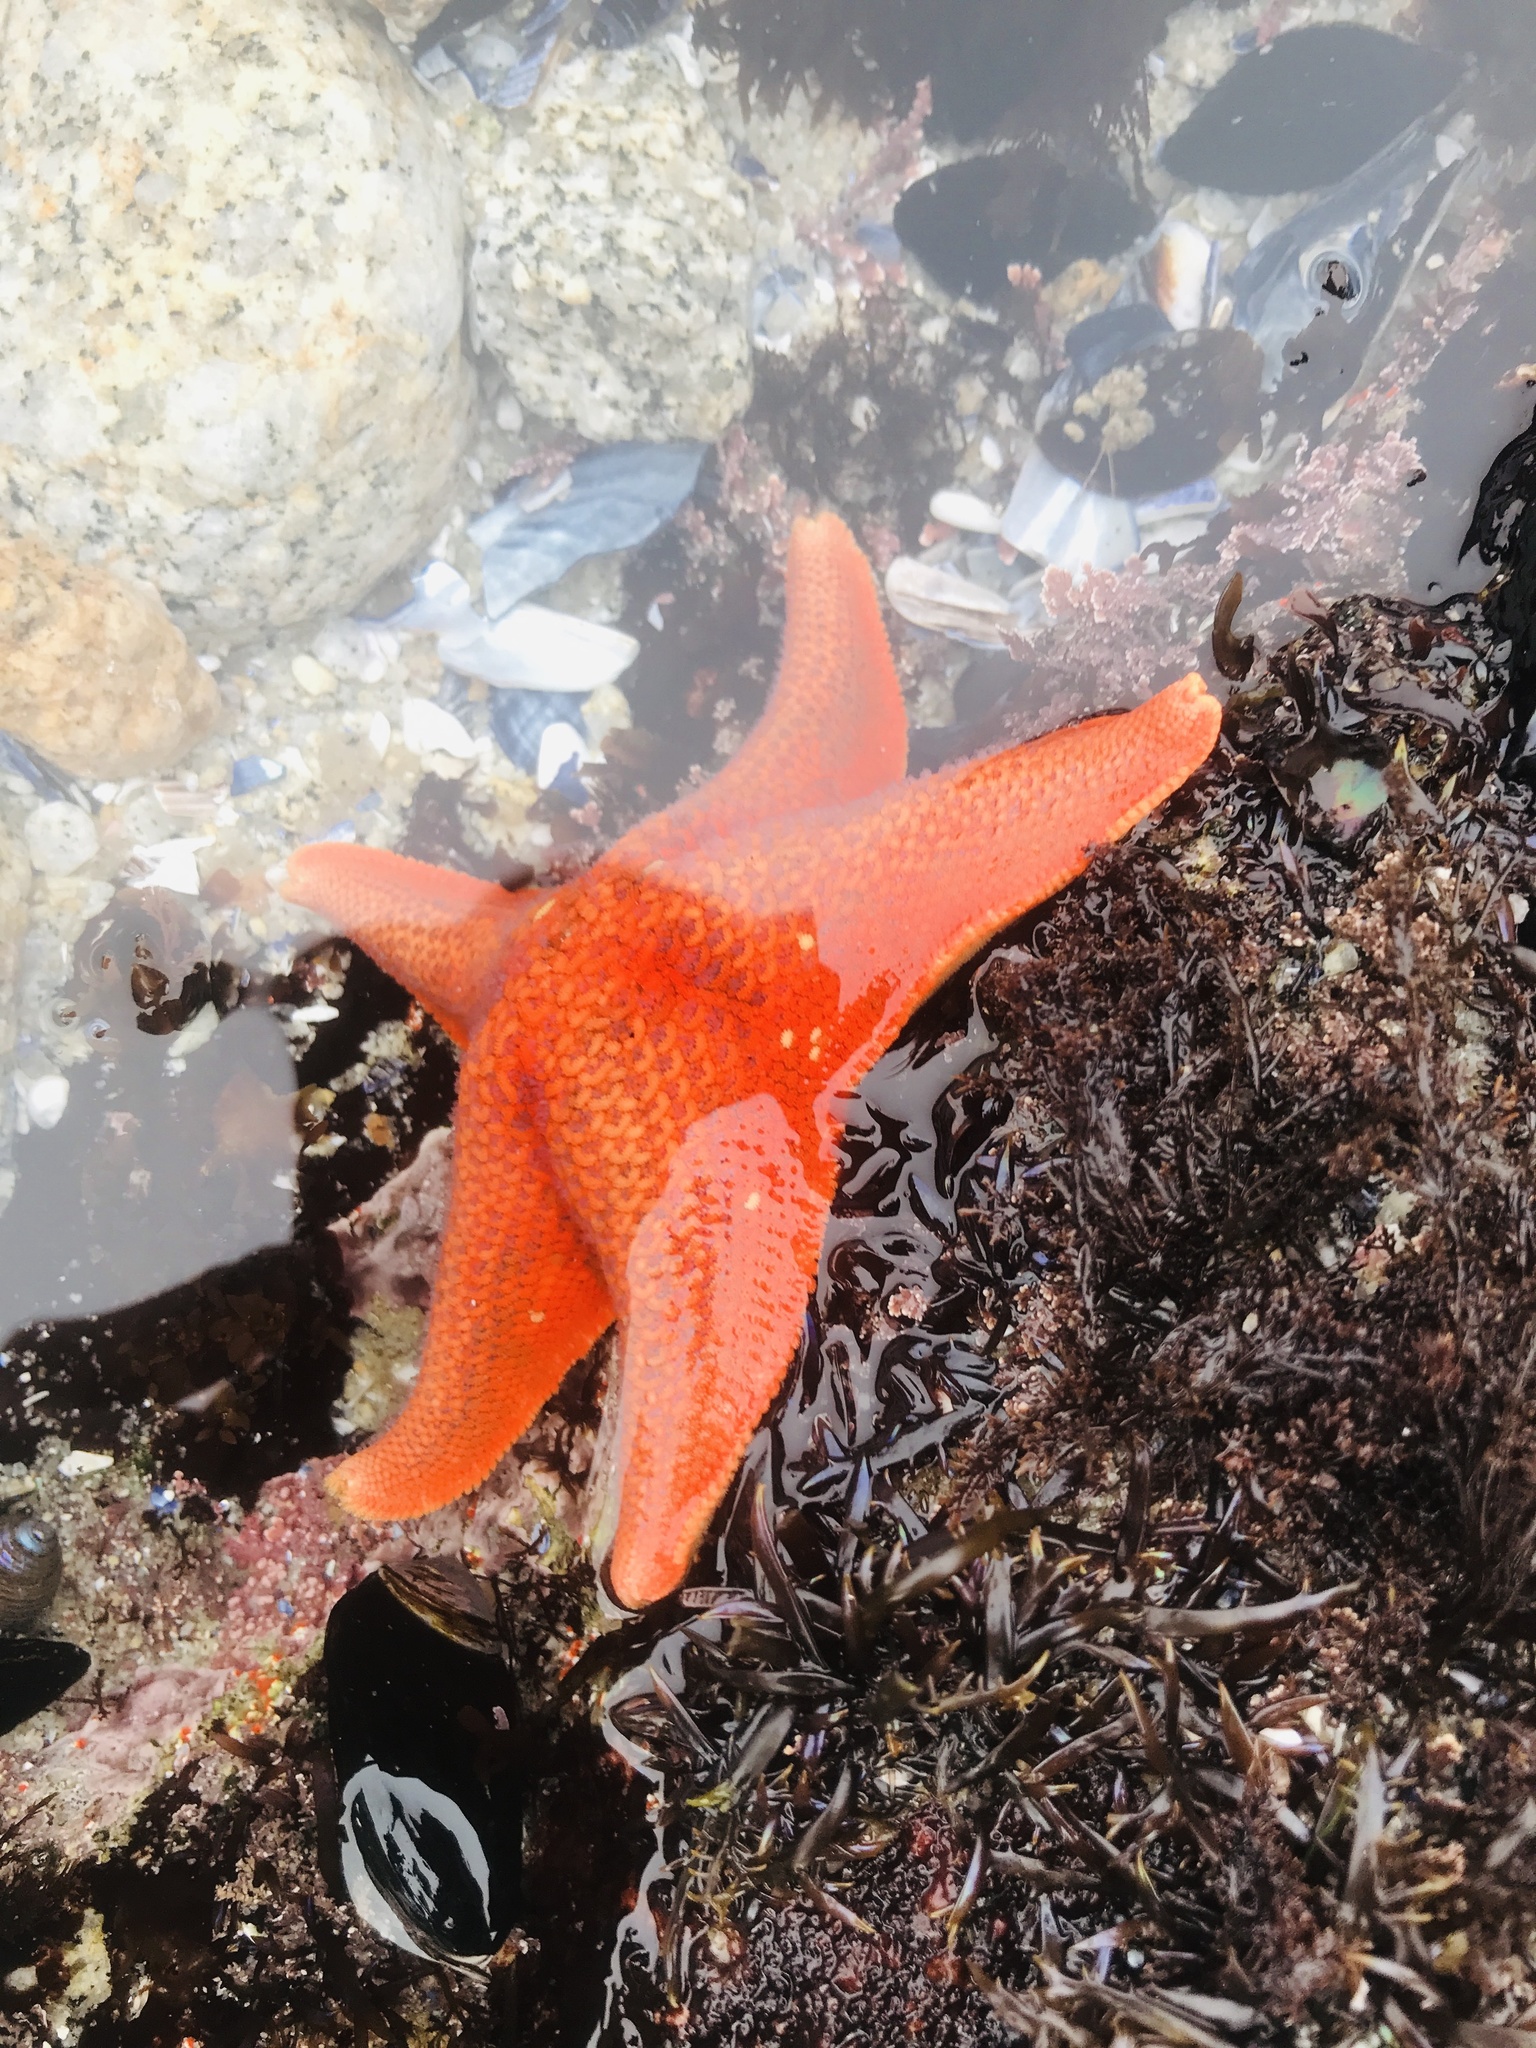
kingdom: Animalia
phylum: Echinodermata
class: Asteroidea
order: Valvatida
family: Asterinidae
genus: Patiria
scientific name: Patiria miniata
